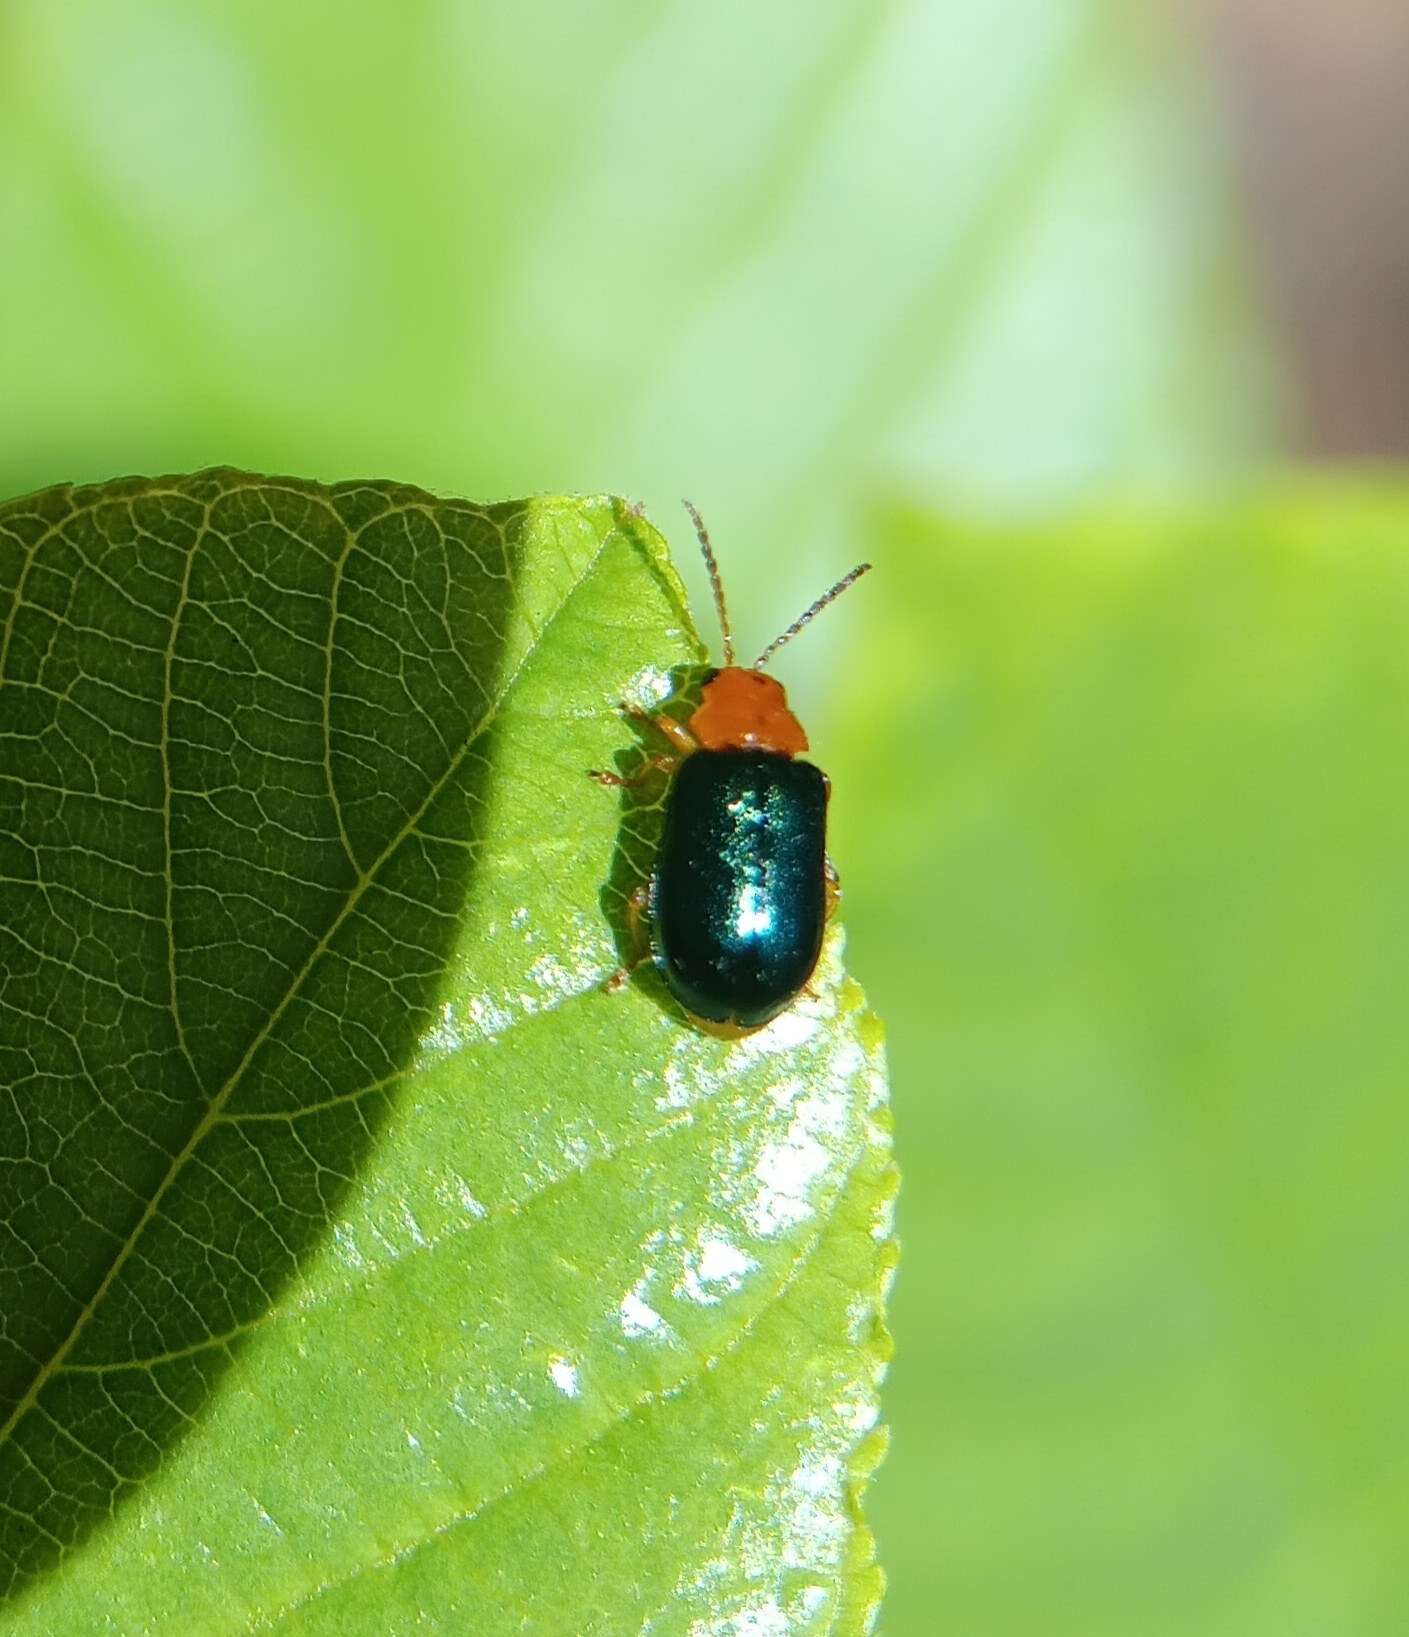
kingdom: Animalia
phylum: Arthropoda
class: Insecta
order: Coleoptera
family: Chrysomelidae
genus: Miraces
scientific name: Miraces placida
